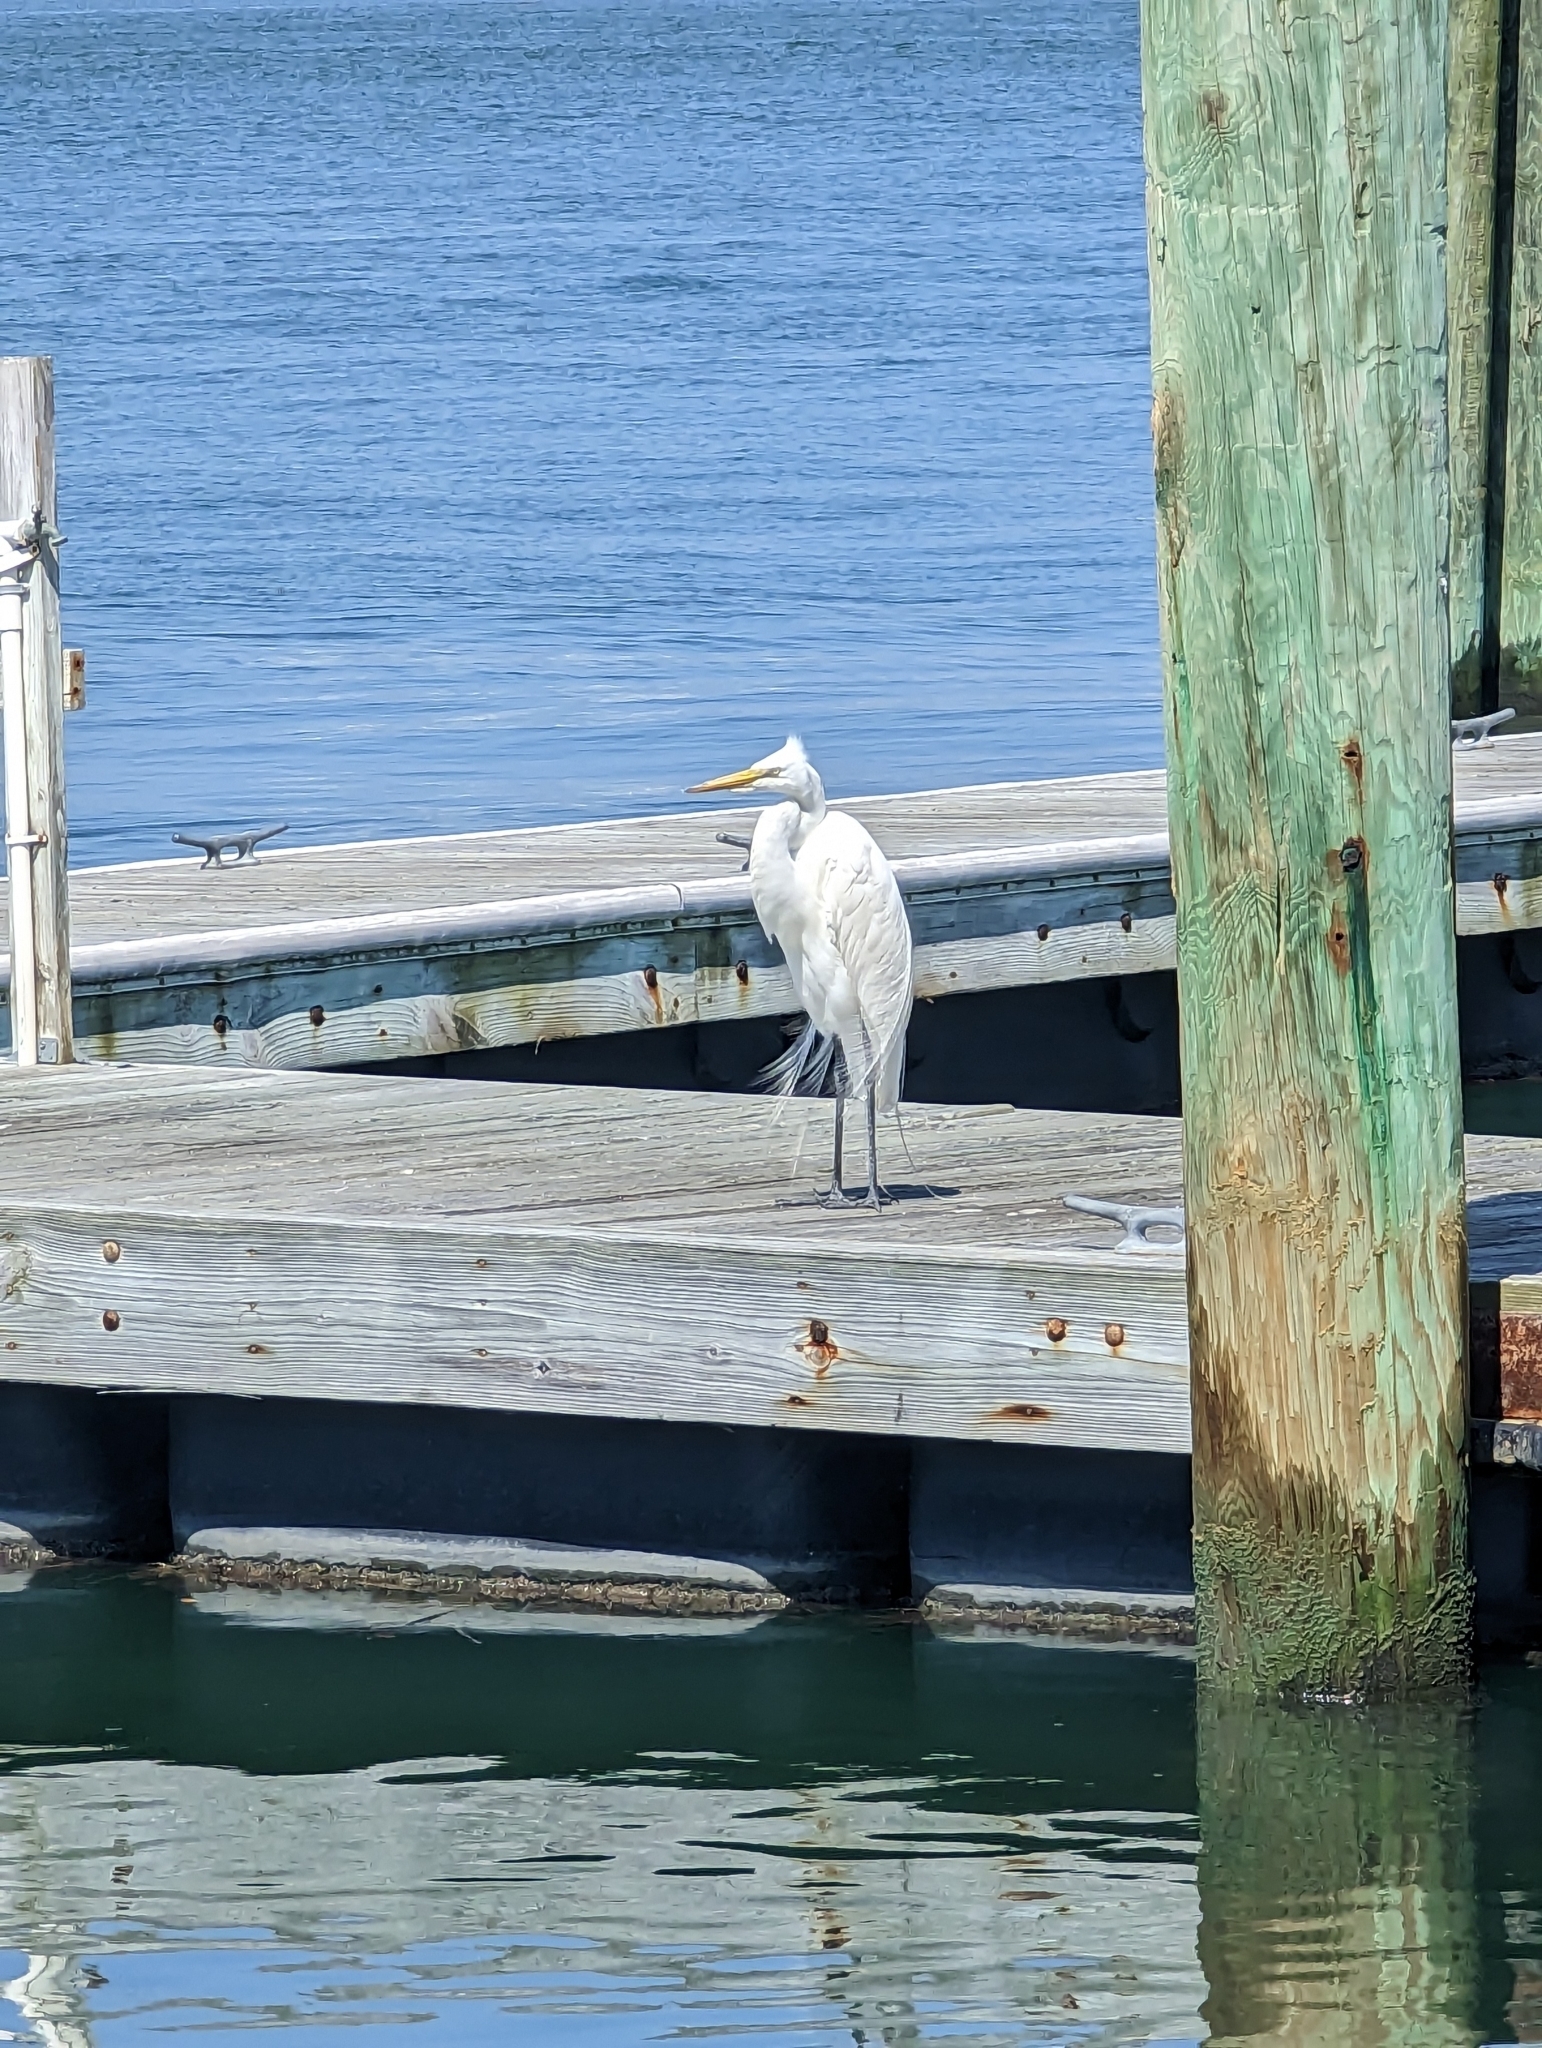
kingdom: Animalia
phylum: Chordata
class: Aves
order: Pelecaniformes
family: Ardeidae
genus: Ardea
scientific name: Ardea alba
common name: Great egret
